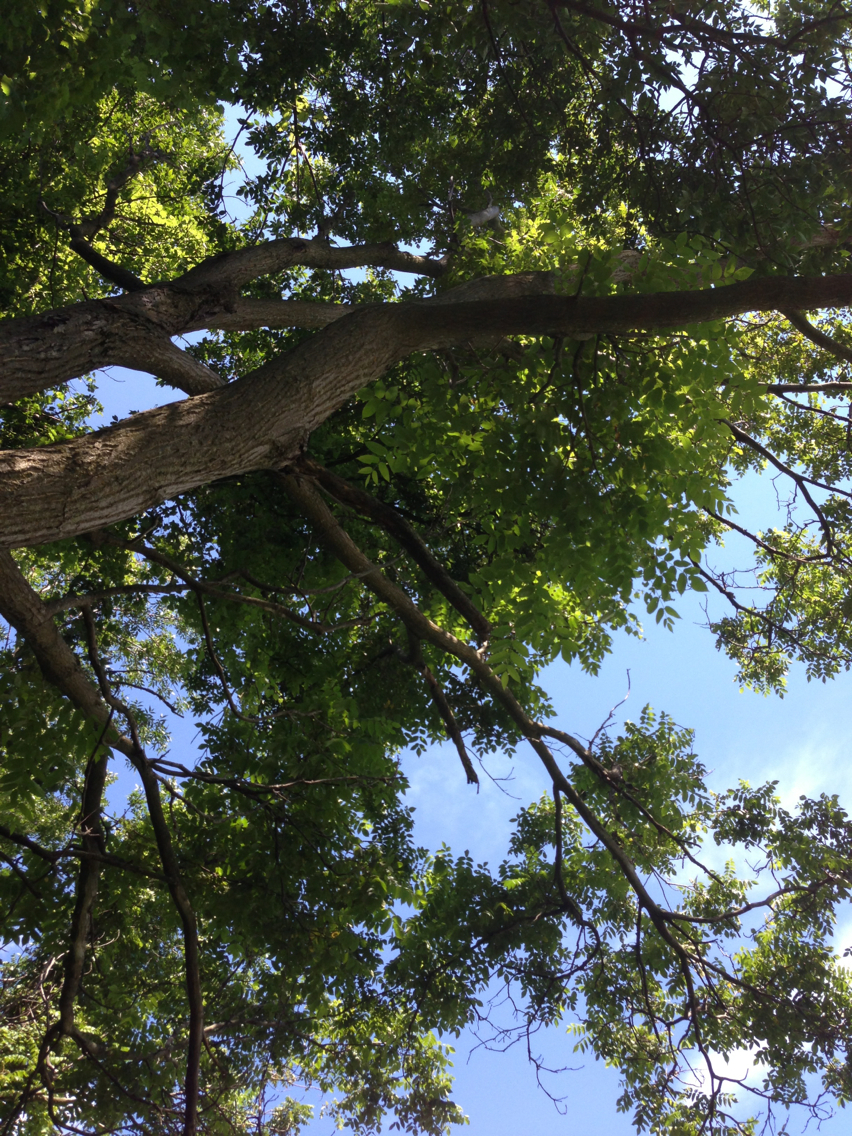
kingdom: Plantae
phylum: Tracheophyta
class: Magnoliopsida
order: Fagales
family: Juglandaceae
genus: Juglans
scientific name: Juglans cinerea
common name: Butternut
